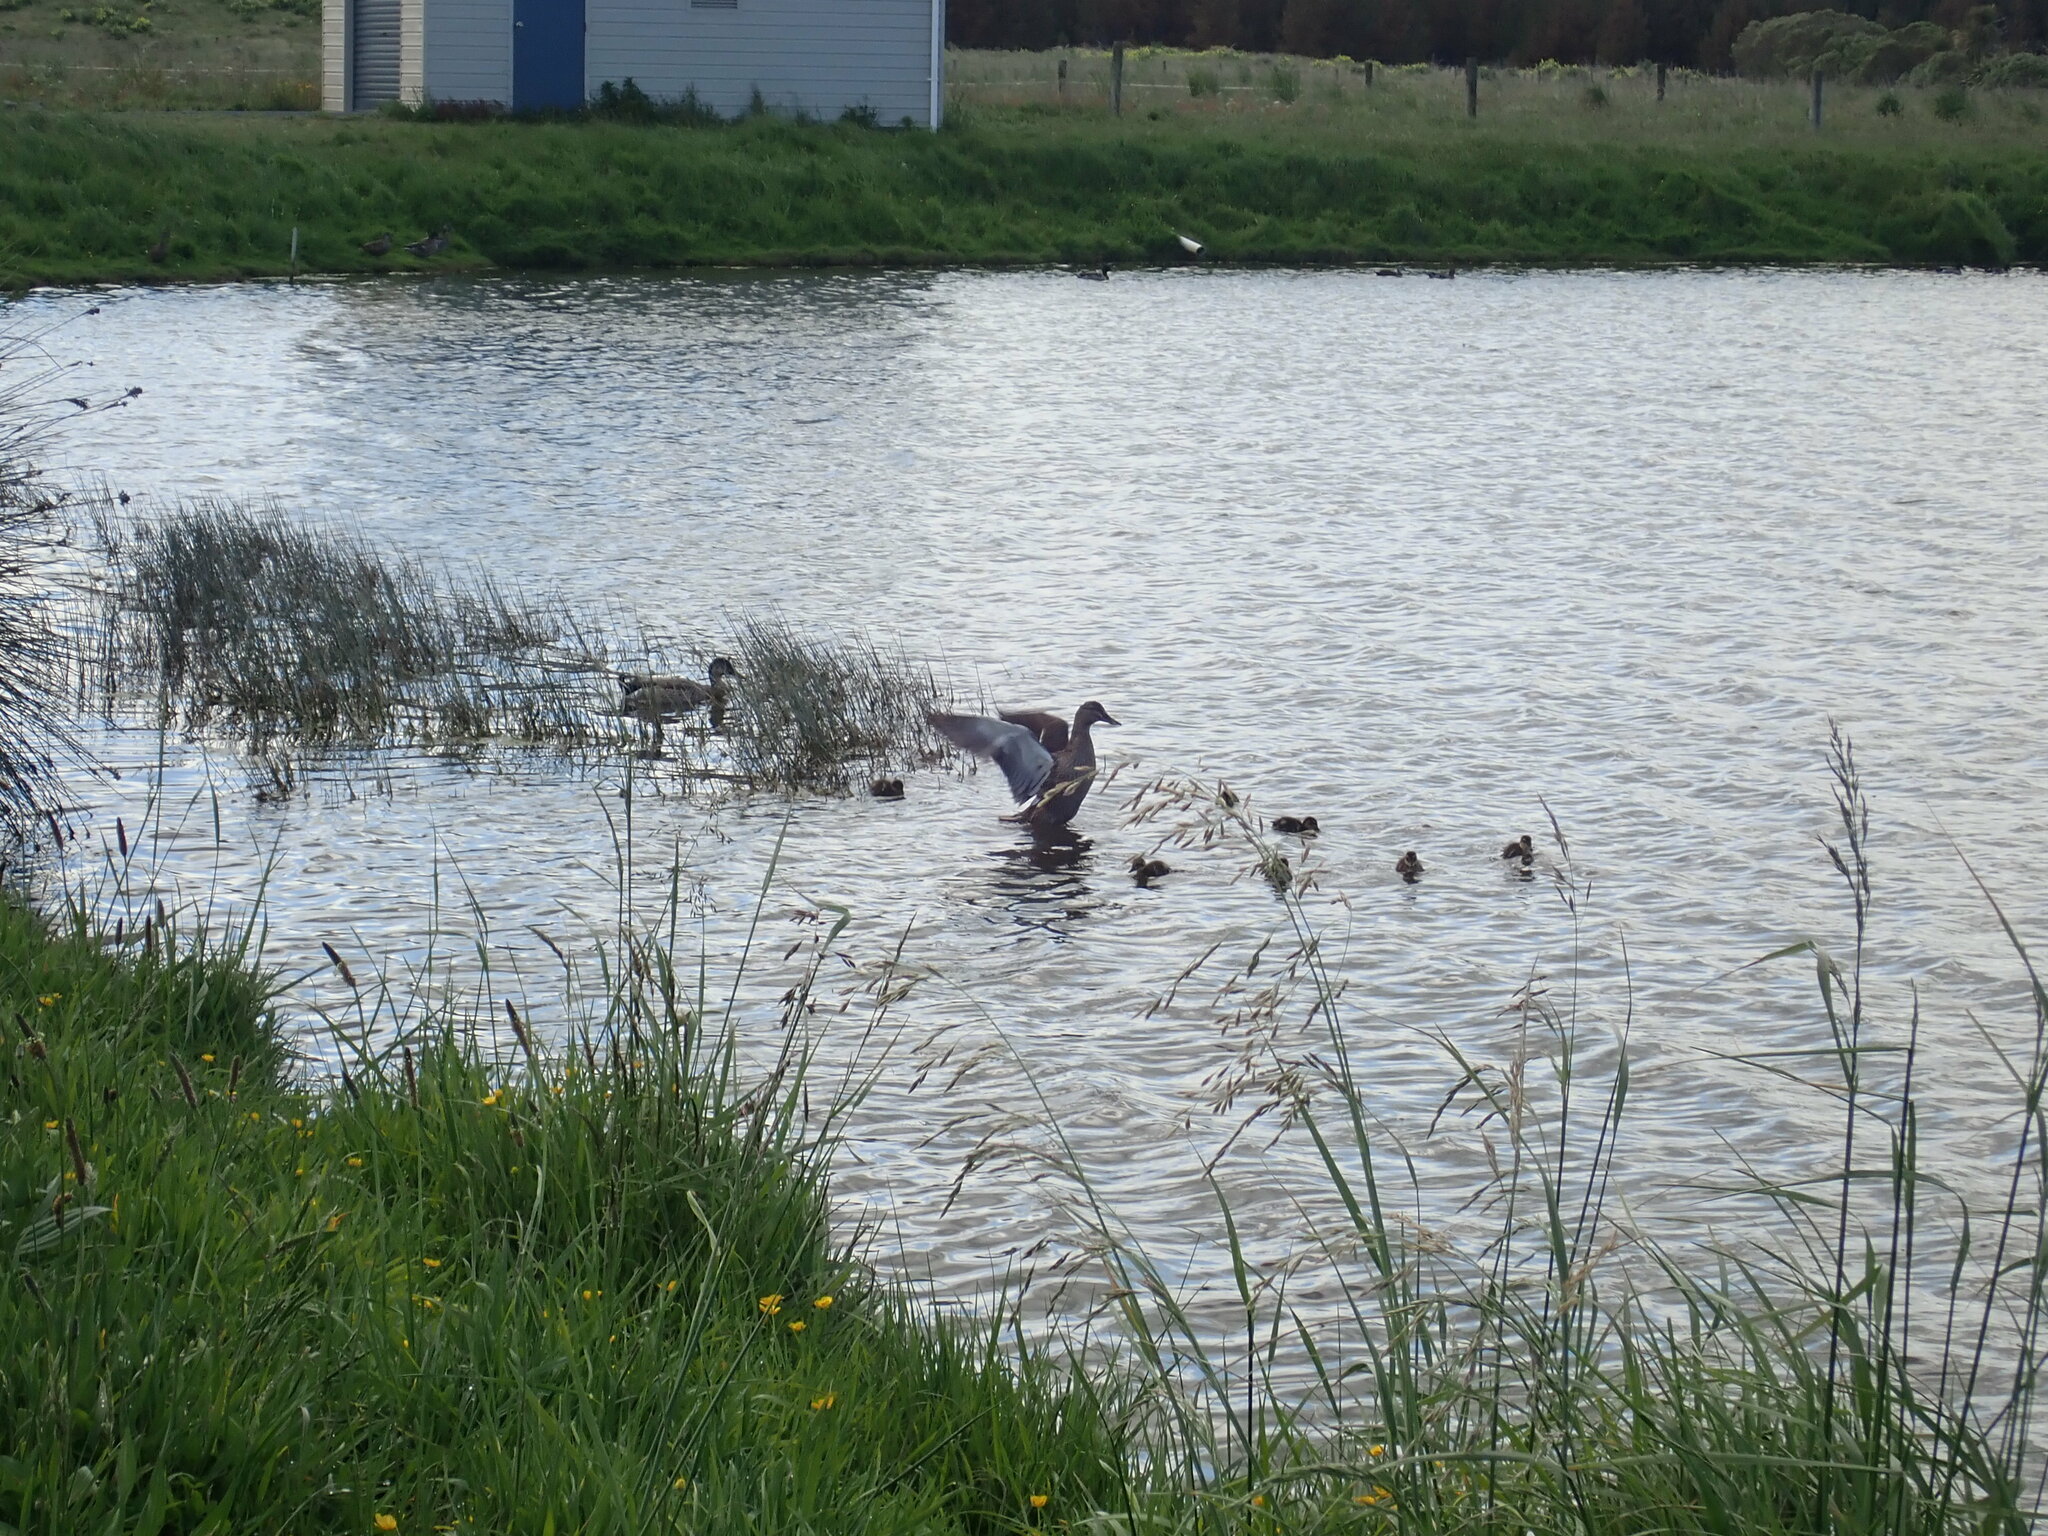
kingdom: Animalia
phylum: Chordata
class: Aves
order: Anseriformes
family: Anatidae
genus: Anas
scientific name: Anas
